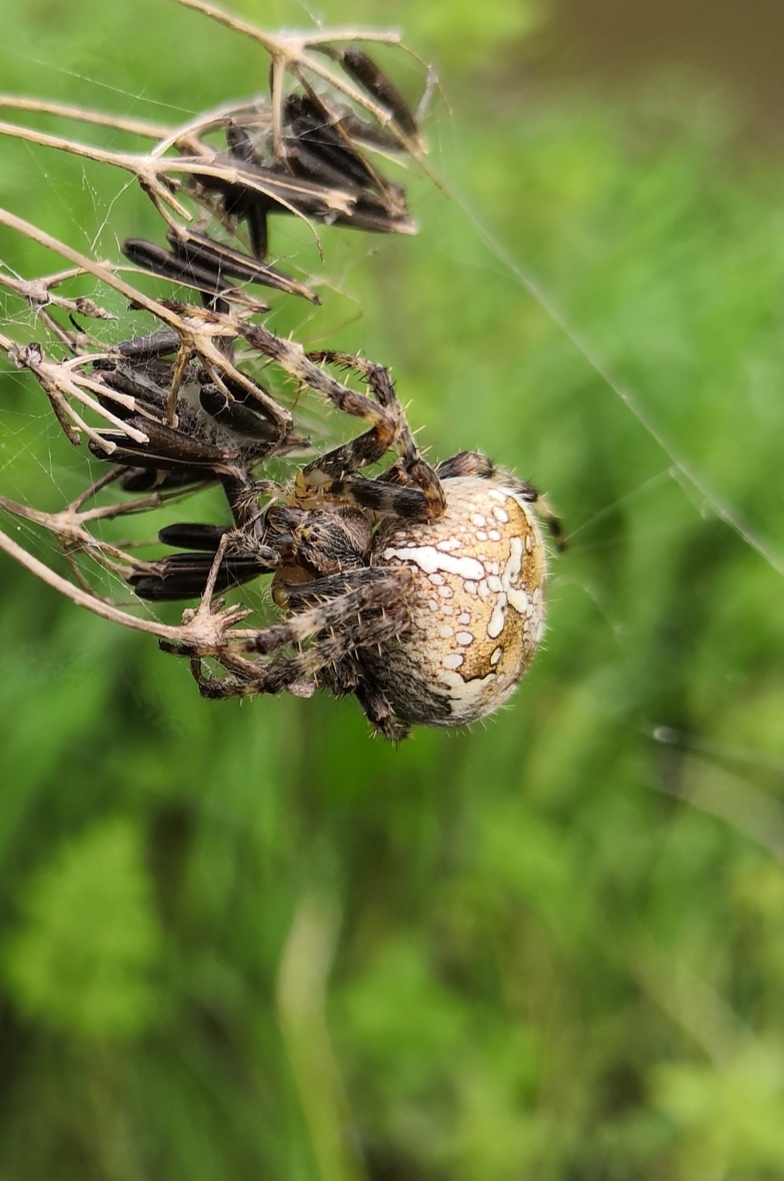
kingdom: Animalia
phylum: Arthropoda
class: Arachnida
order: Araneae
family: Araneidae
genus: Araneus
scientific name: Araneus diadematus
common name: Cross orbweaver
